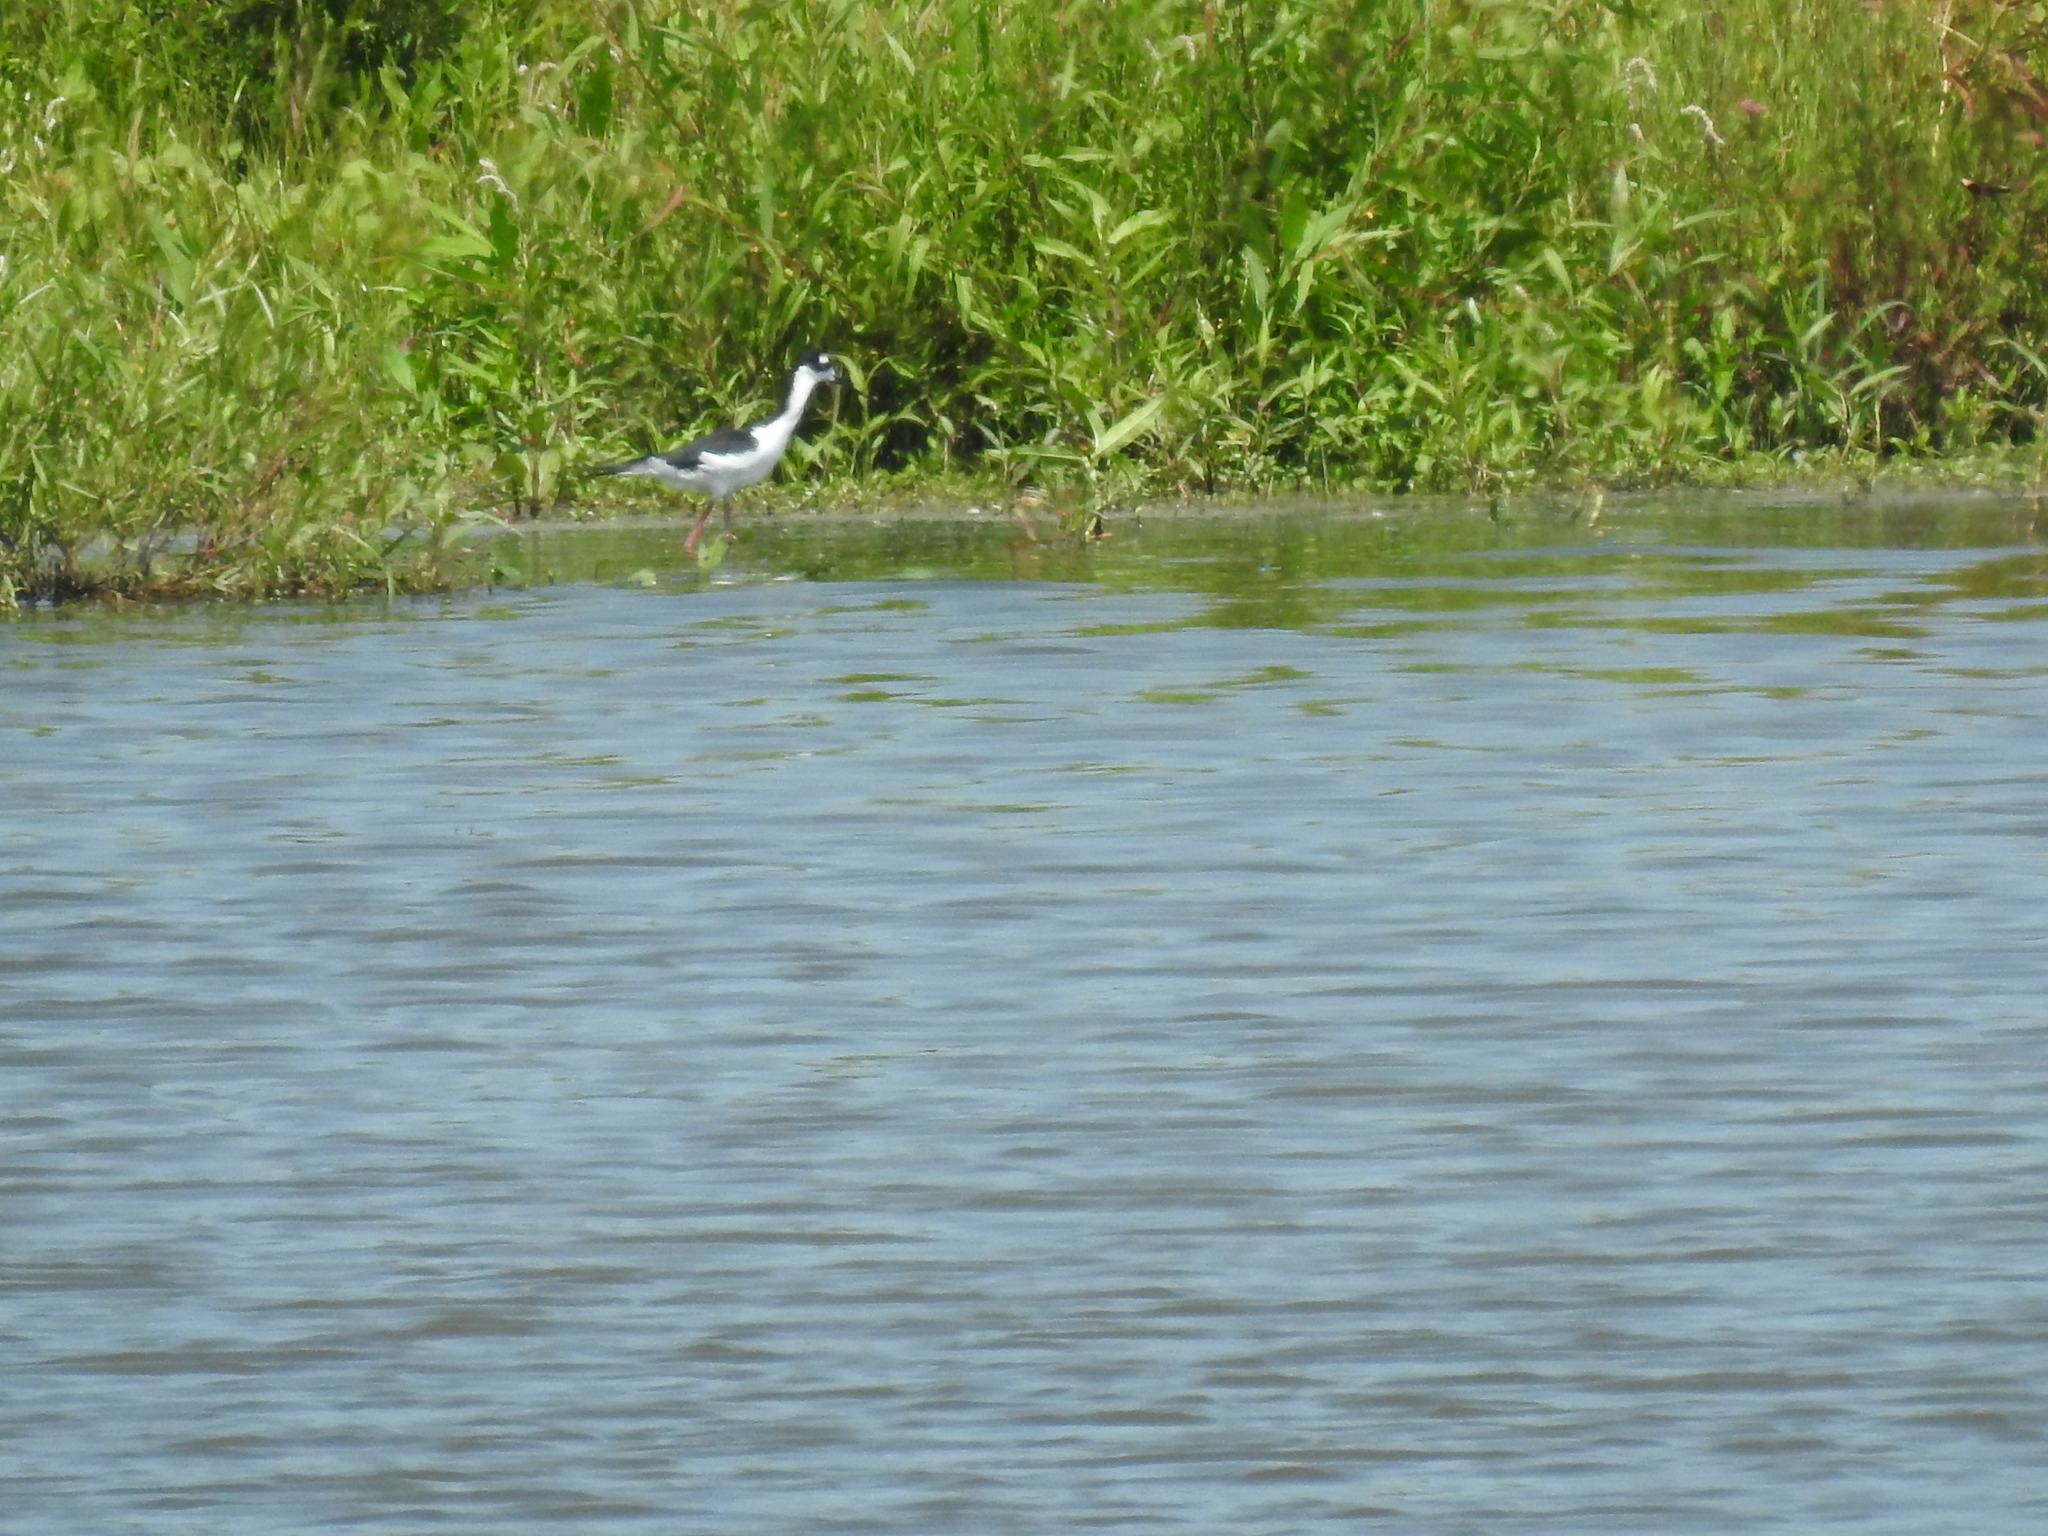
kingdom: Animalia
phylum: Chordata
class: Aves
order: Charadriiformes
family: Recurvirostridae
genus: Himantopus
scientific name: Himantopus mexicanus
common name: Black-necked stilt
